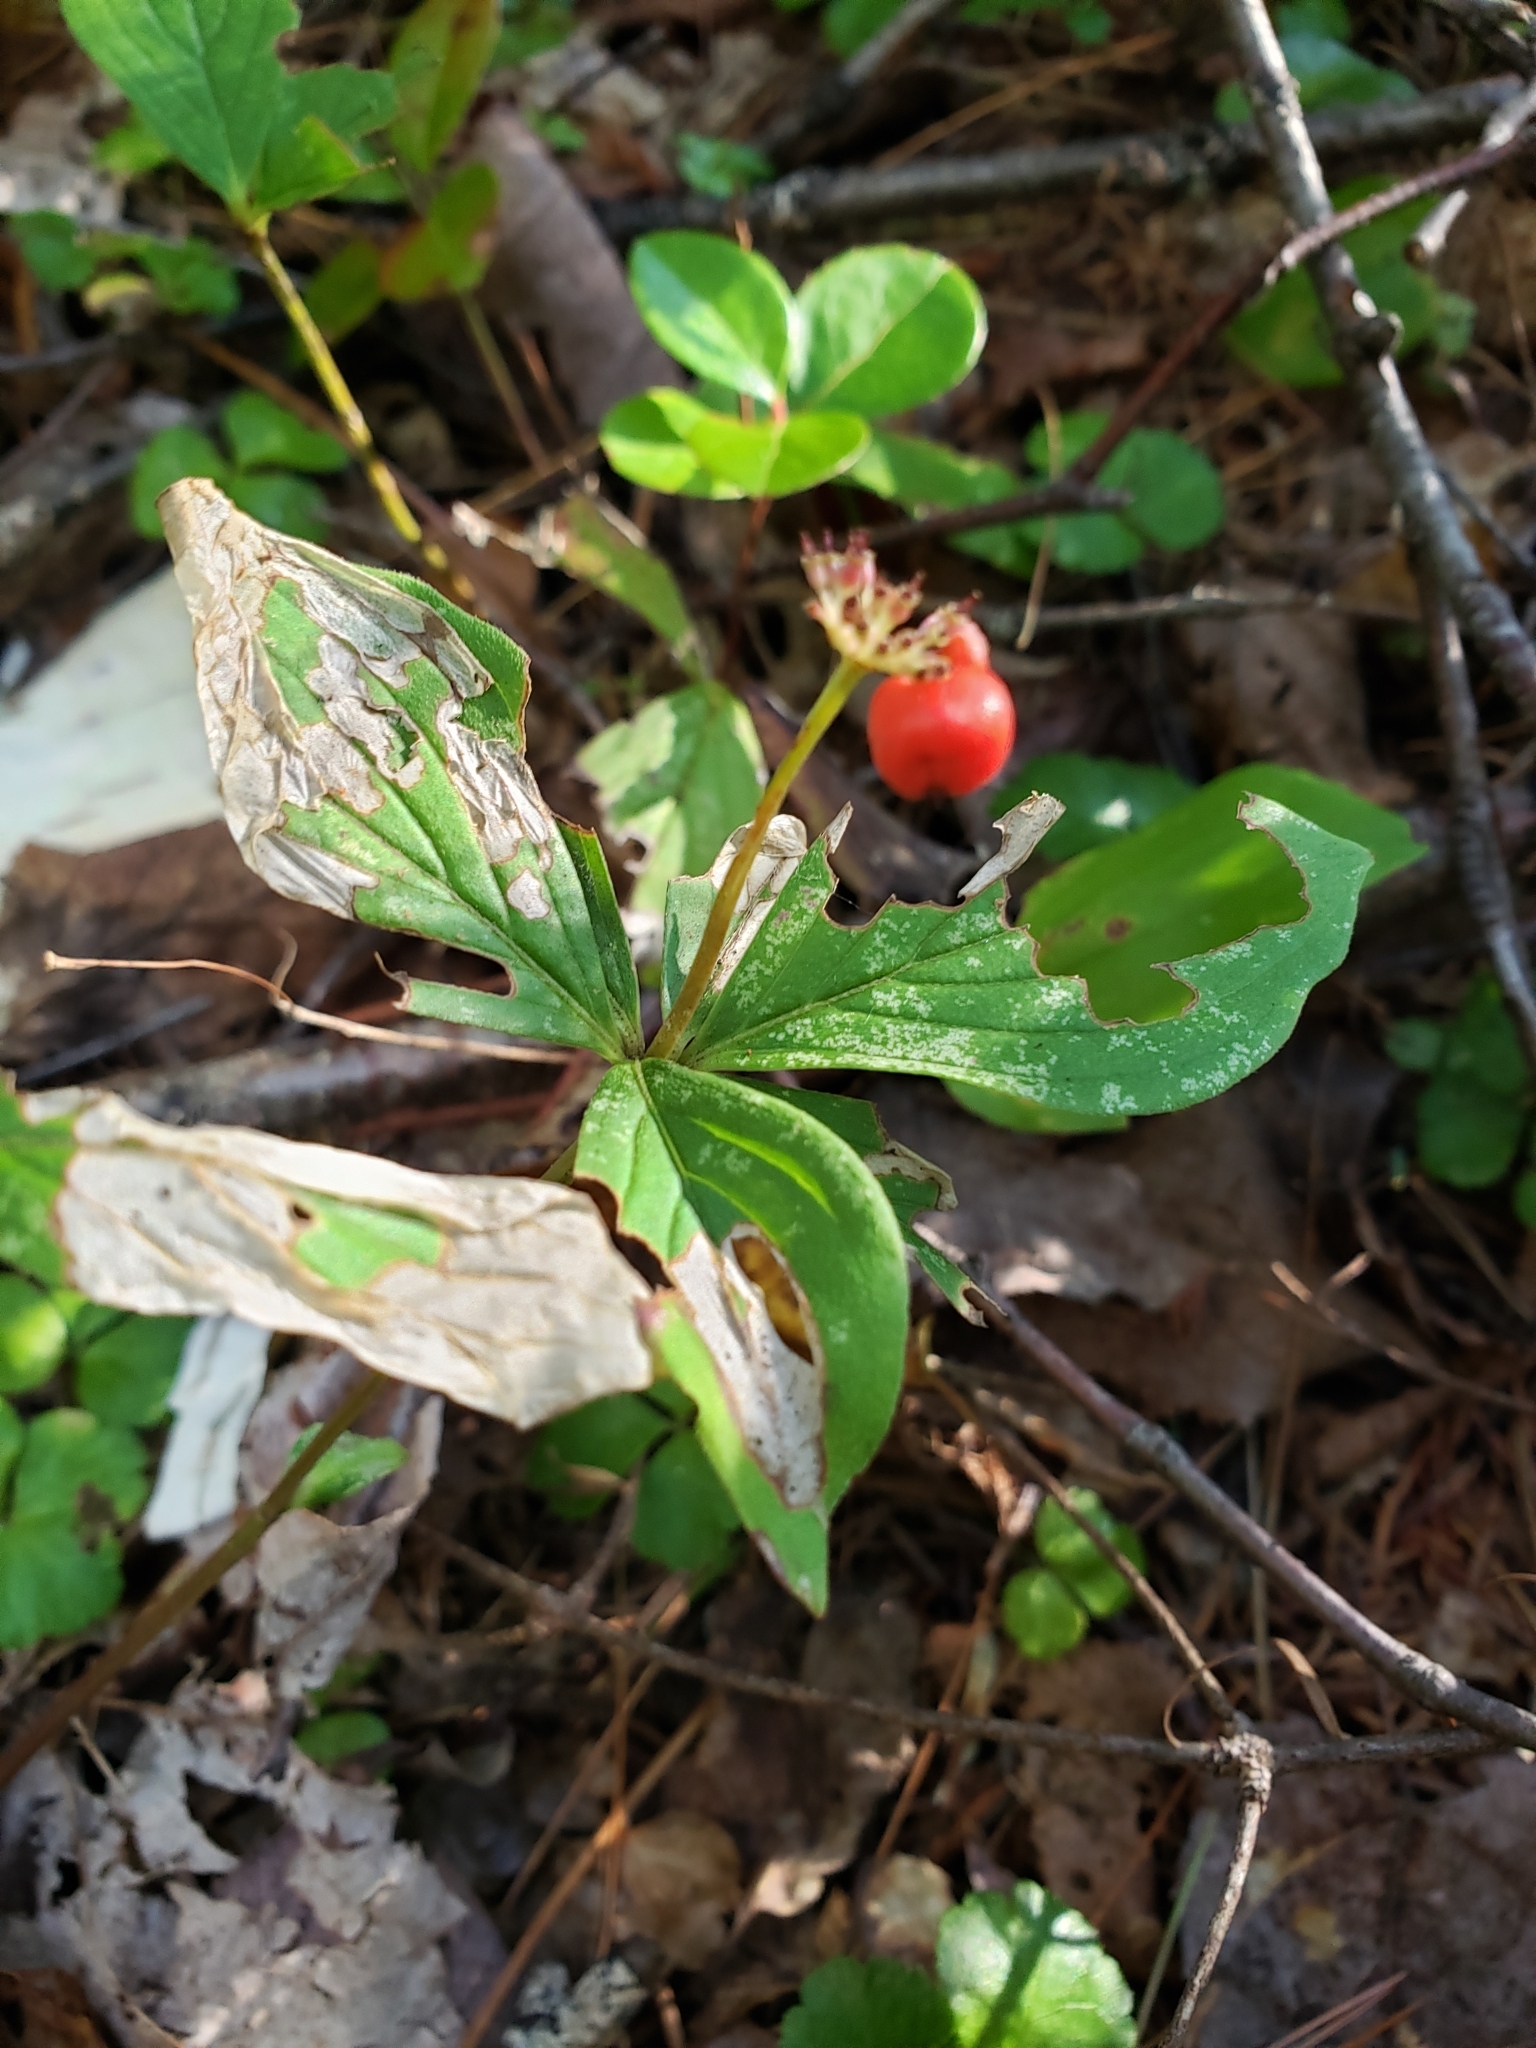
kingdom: Plantae
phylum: Tracheophyta
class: Magnoliopsida
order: Cornales
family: Cornaceae
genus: Cornus
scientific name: Cornus canadensis
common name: Creeping dogwood
